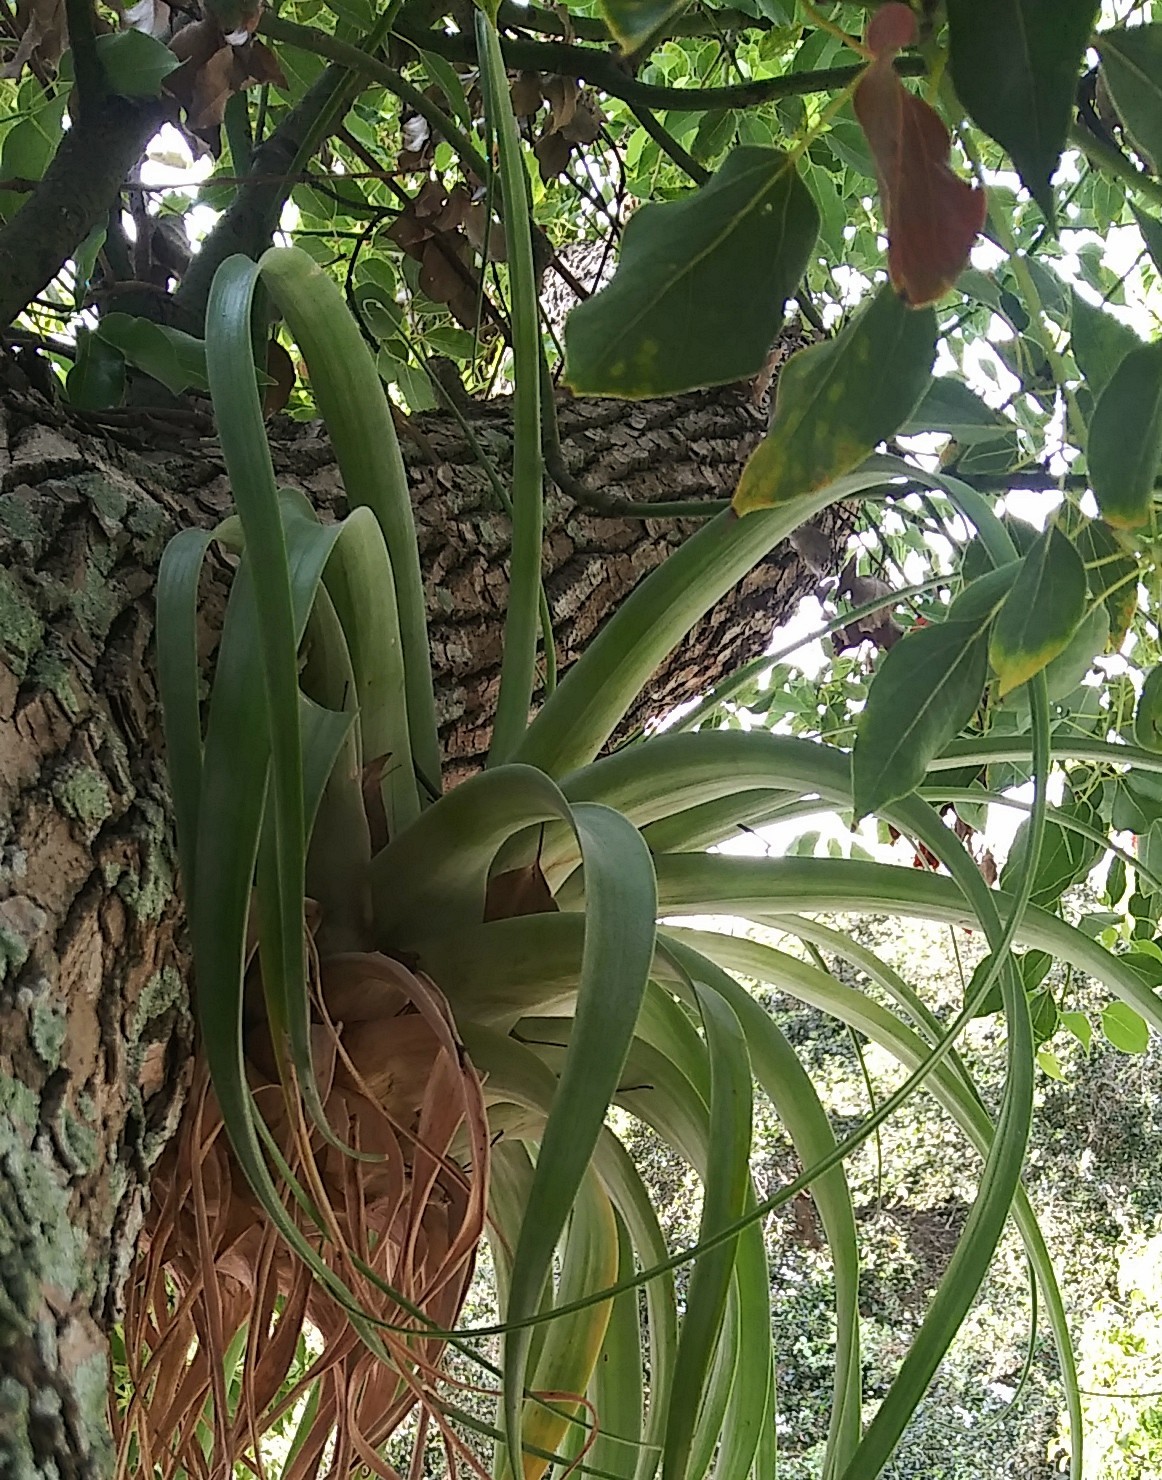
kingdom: Plantae
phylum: Tracheophyta
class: Liliopsida
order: Poales
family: Bromeliaceae
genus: Tillandsia
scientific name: Tillandsia utriculata
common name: Wild pine
